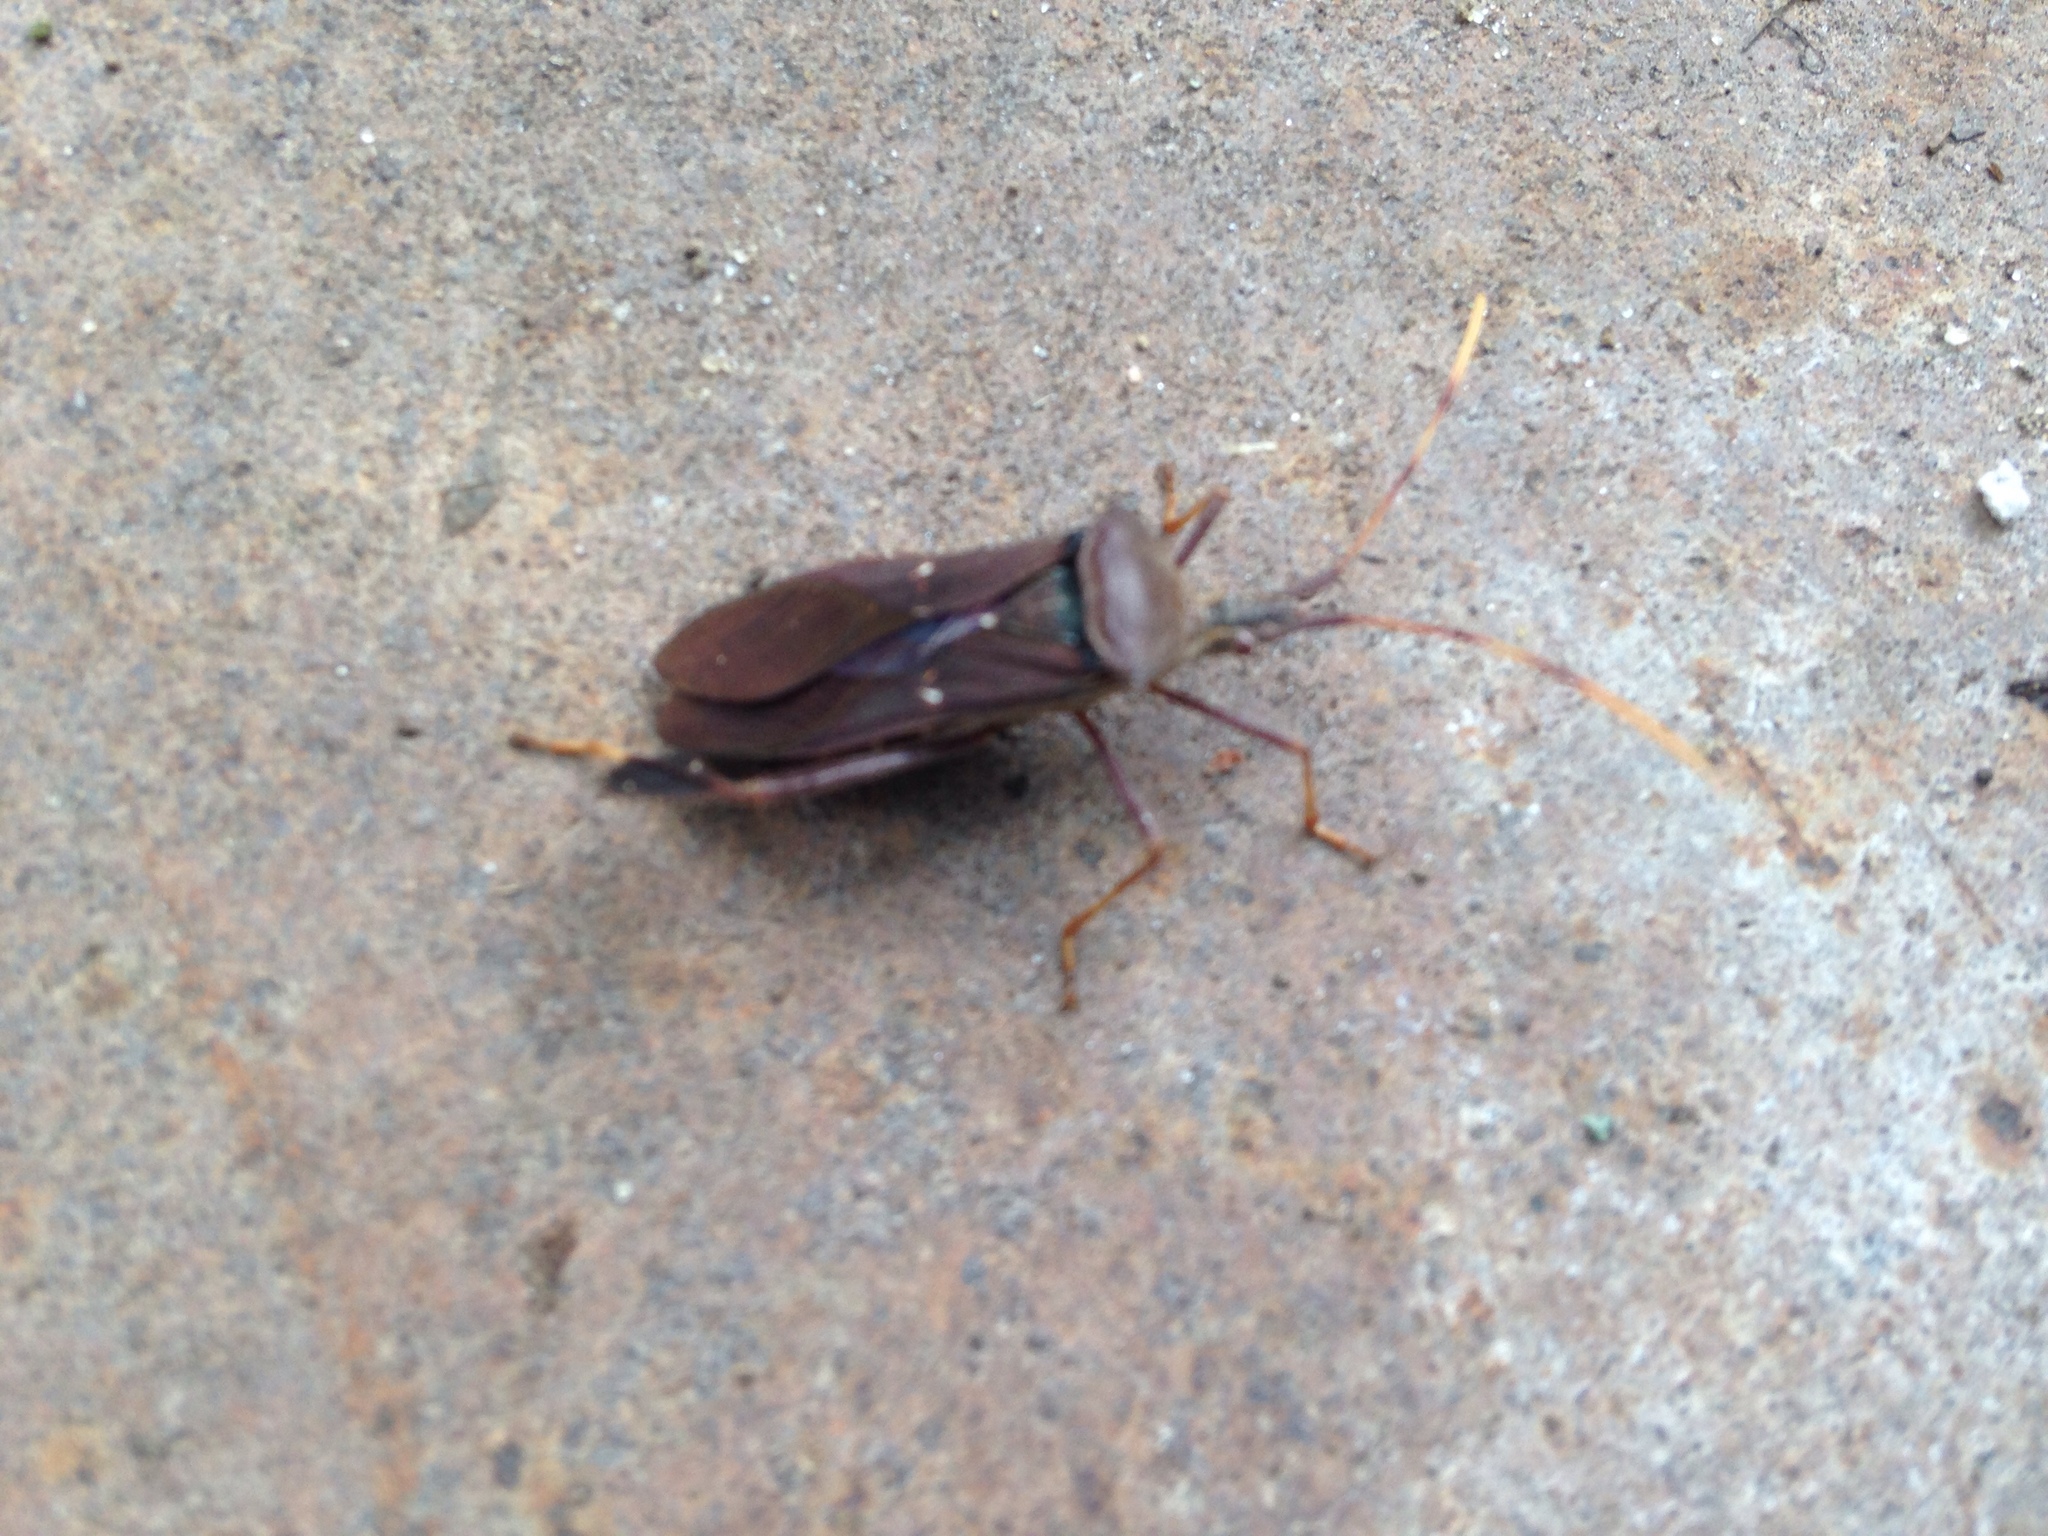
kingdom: Animalia
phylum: Arthropoda
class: Insecta
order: Hemiptera
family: Coreidae
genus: Leptoglossus
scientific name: Leptoglossus oppositus
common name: Northern leaf-footed bug
